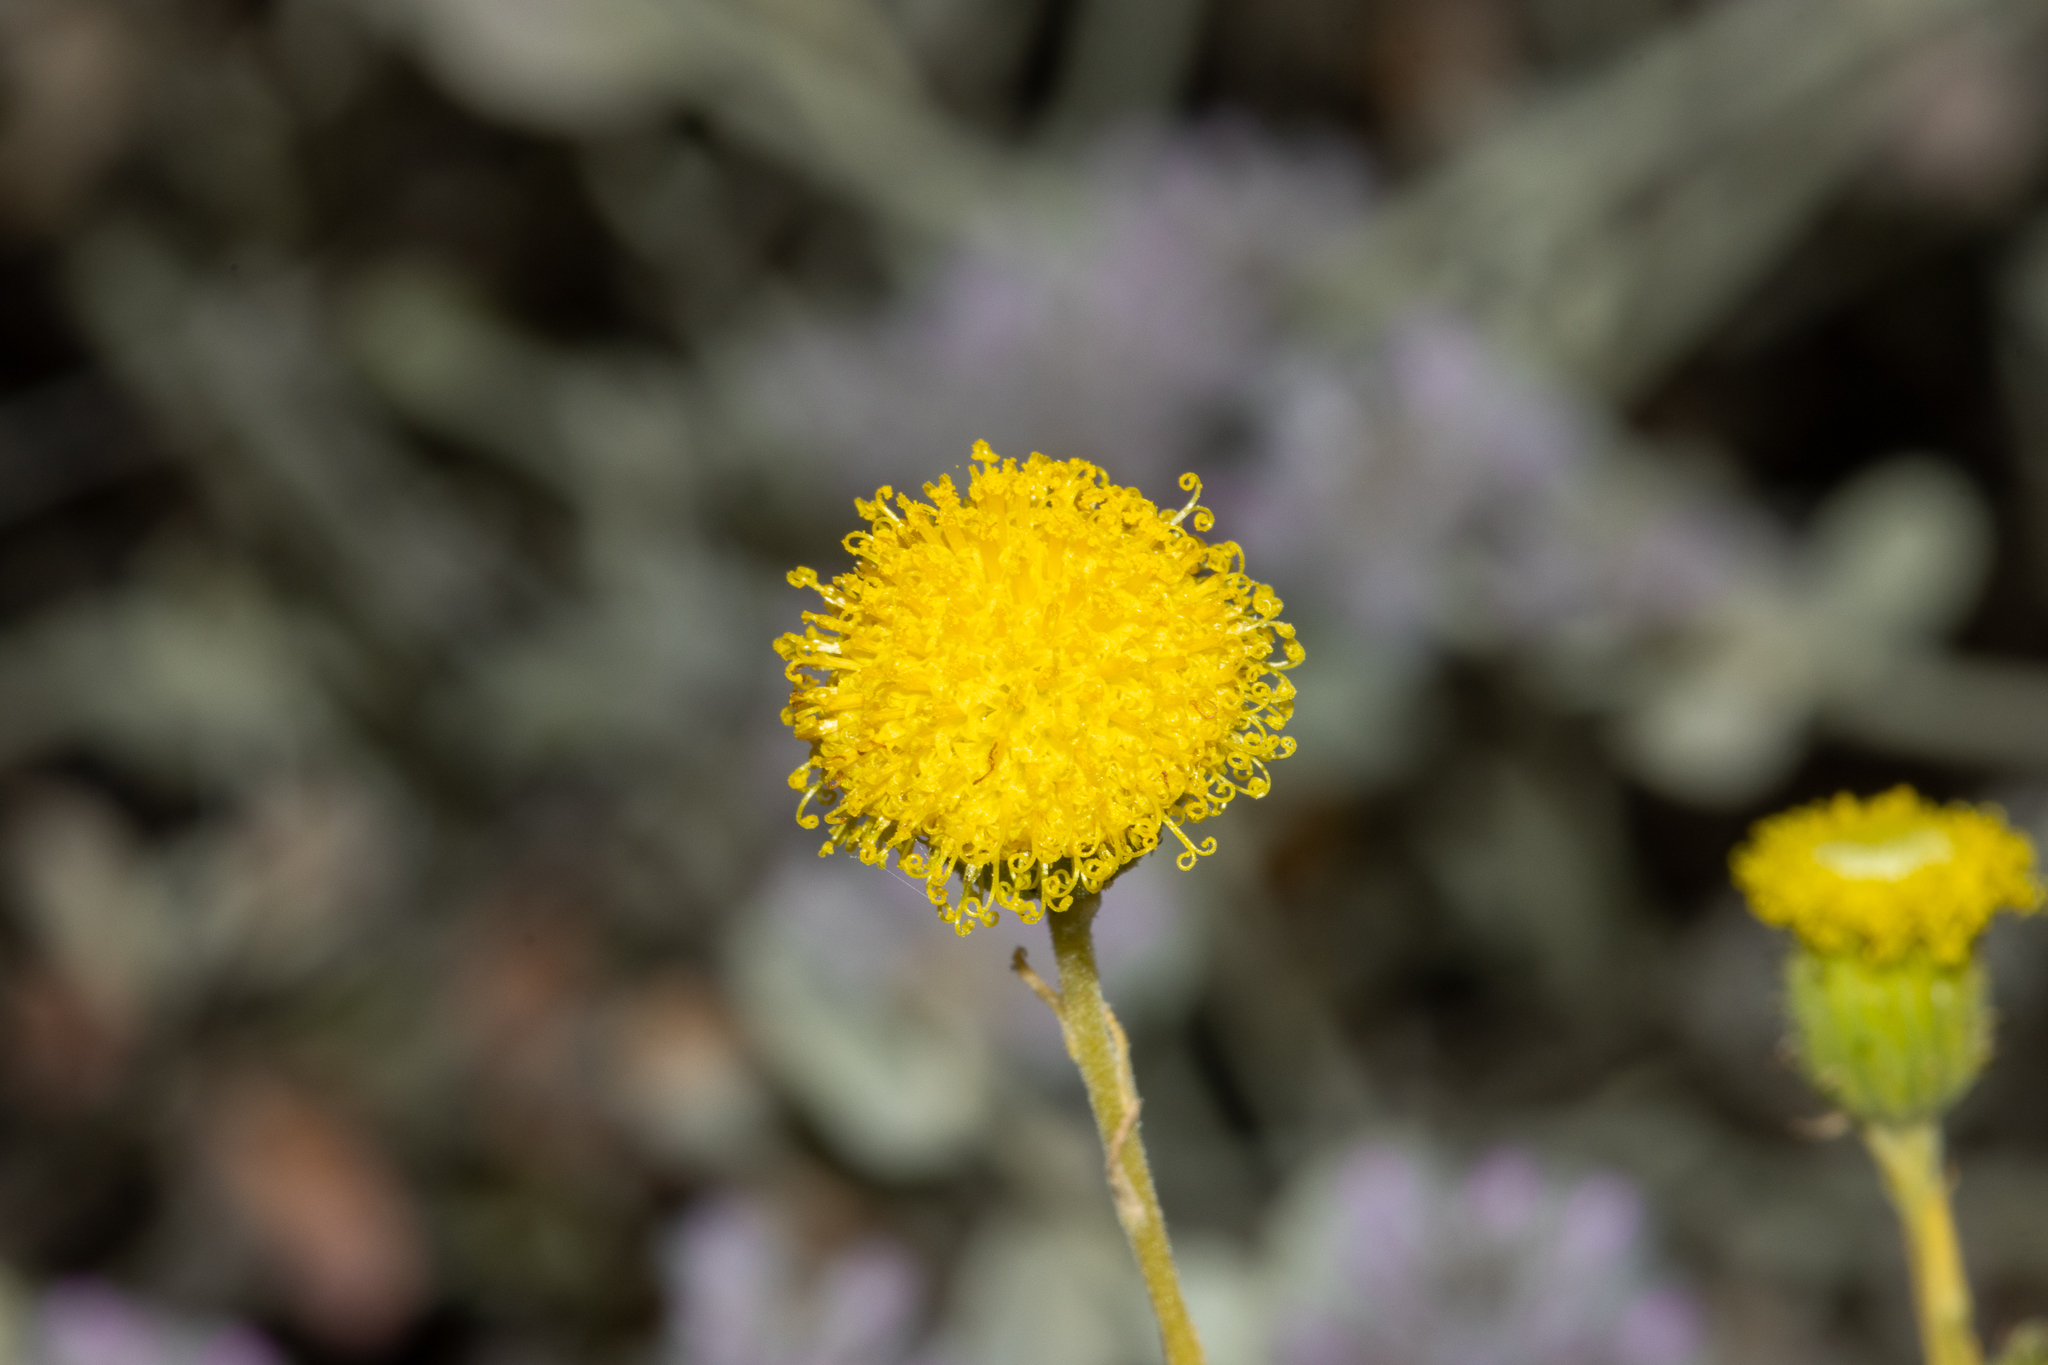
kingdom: Plantae
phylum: Tracheophyta
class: Magnoliopsida
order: Asterales
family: Asteraceae
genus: Leiocarpa
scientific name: Leiocarpa websteri
